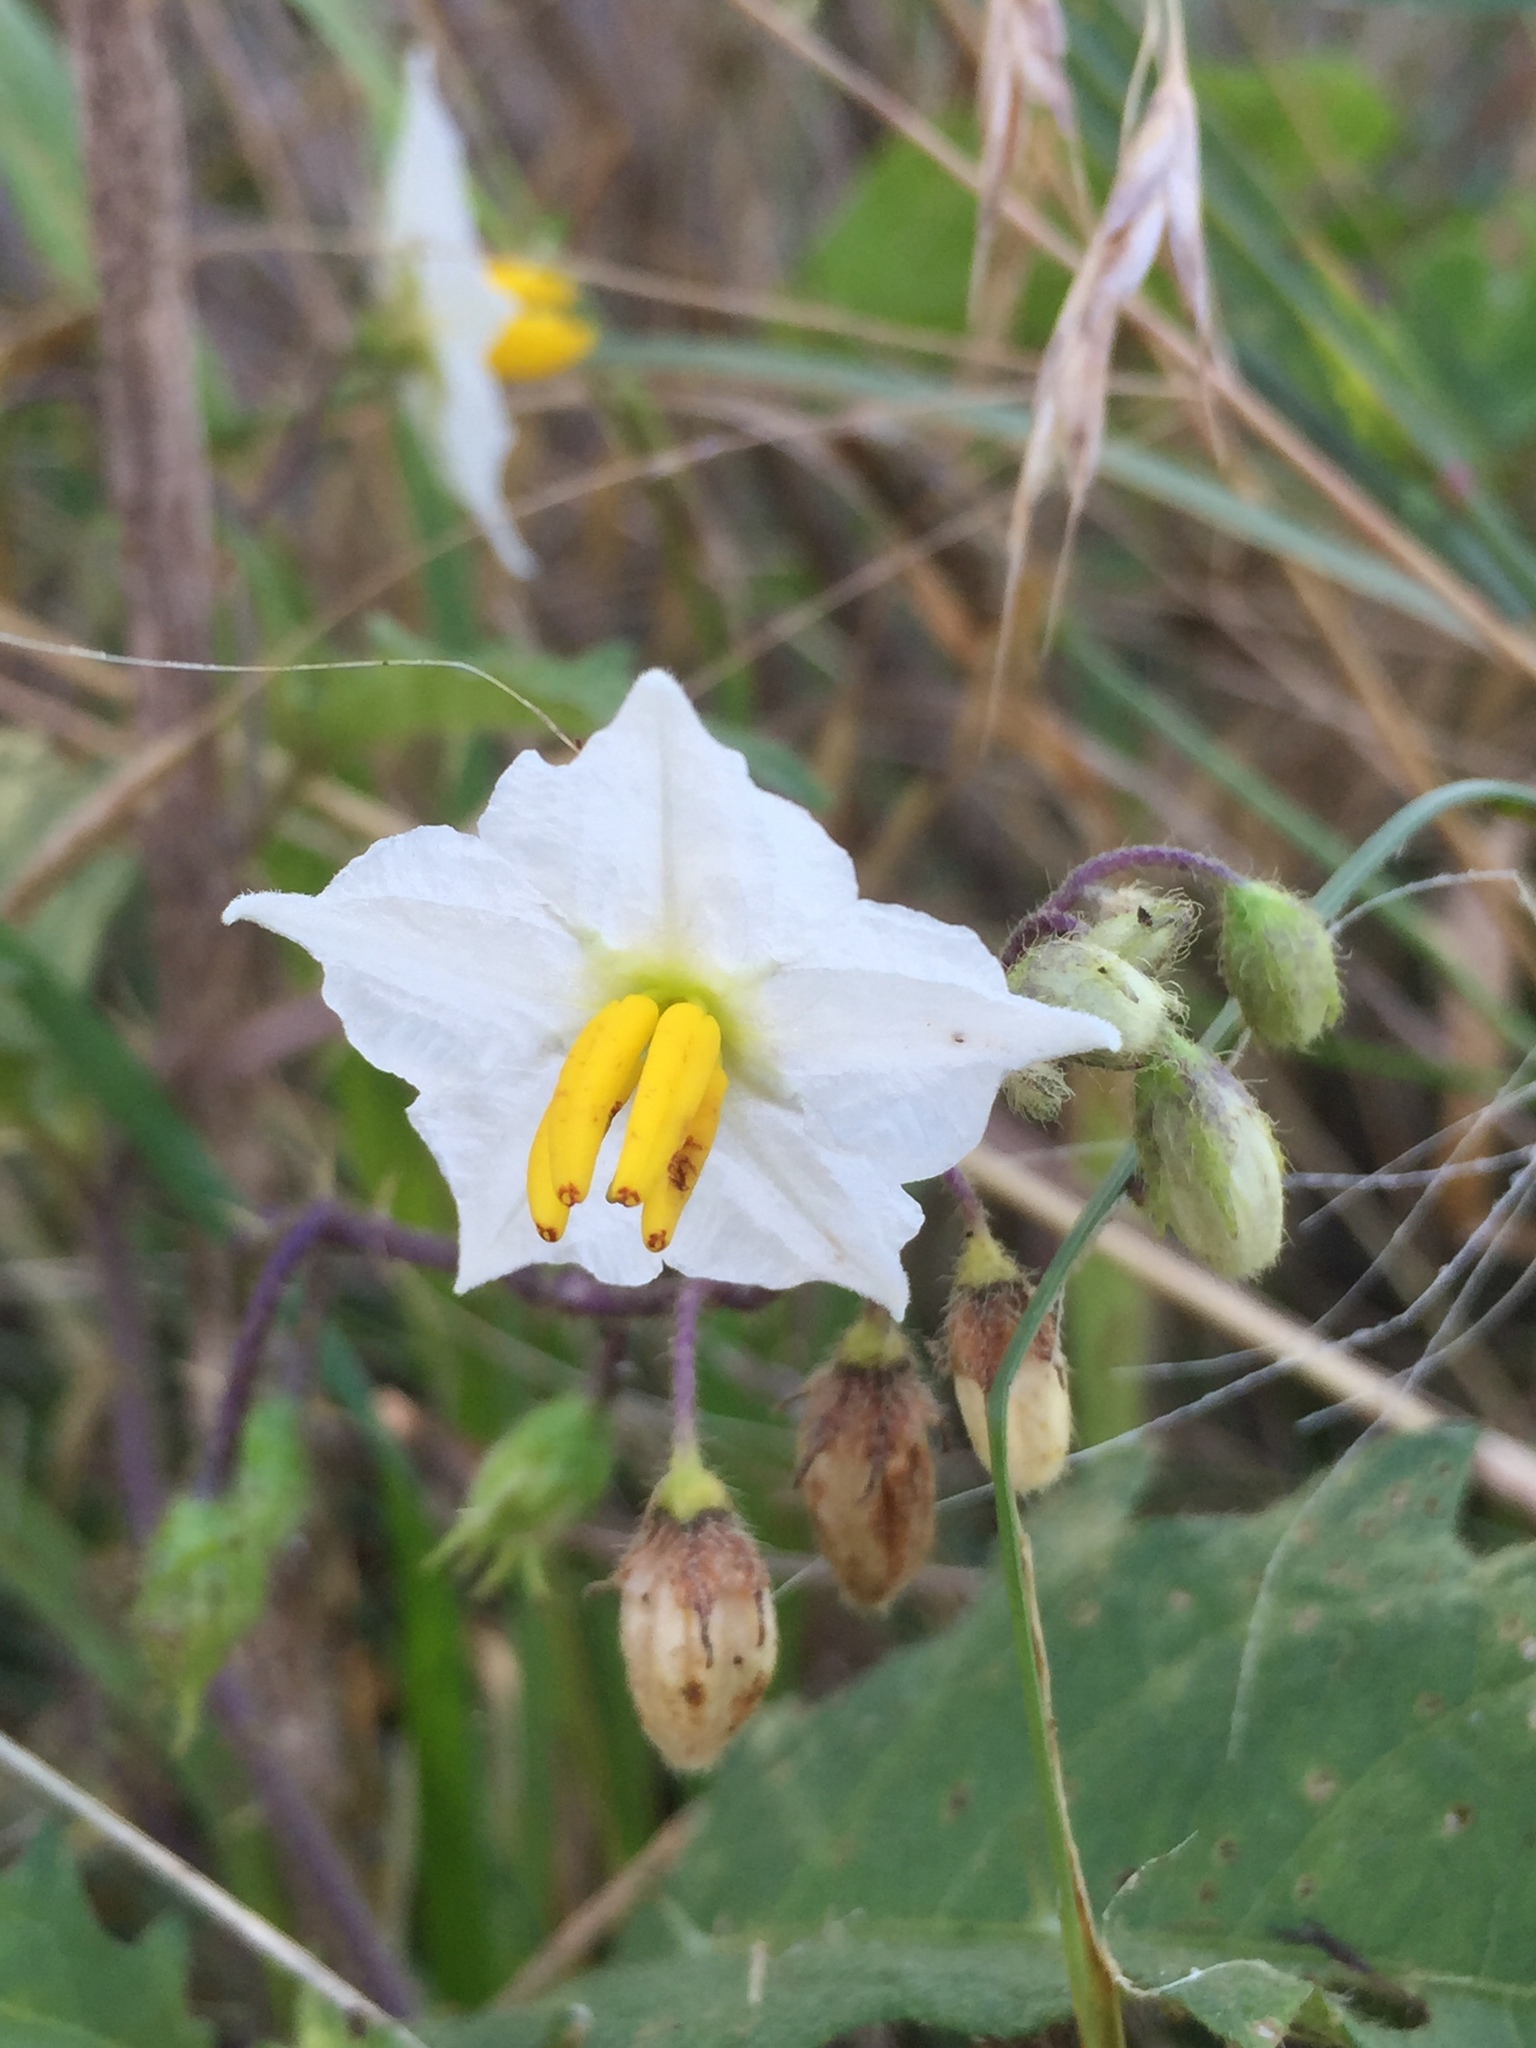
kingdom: Plantae
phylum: Tracheophyta
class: Magnoliopsida
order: Solanales
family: Solanaceae
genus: Solanum
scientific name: Solanum carolinense
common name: Horse-nettle
